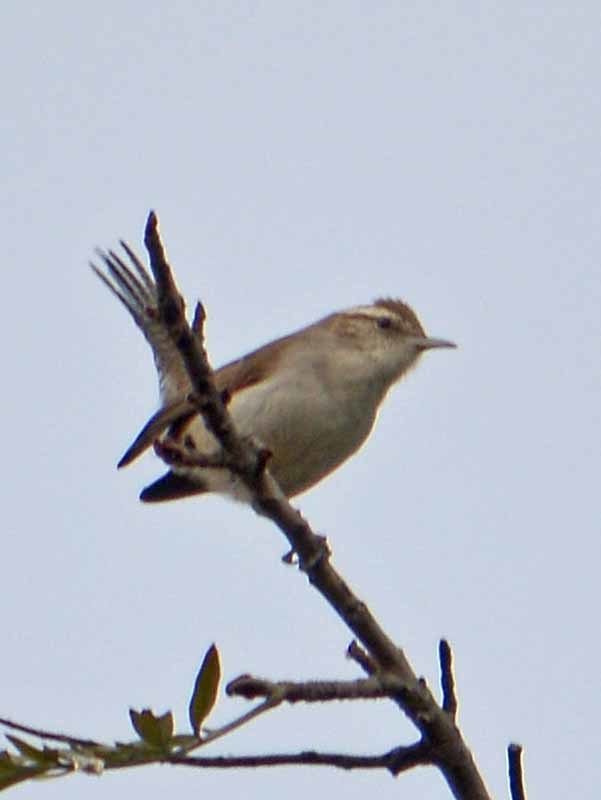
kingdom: Animalia
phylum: Chordata
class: Aves
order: Passeriformes
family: Troglodytidae
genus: Thryomanes
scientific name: Thryomanes bewickii
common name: Bewick's wren
